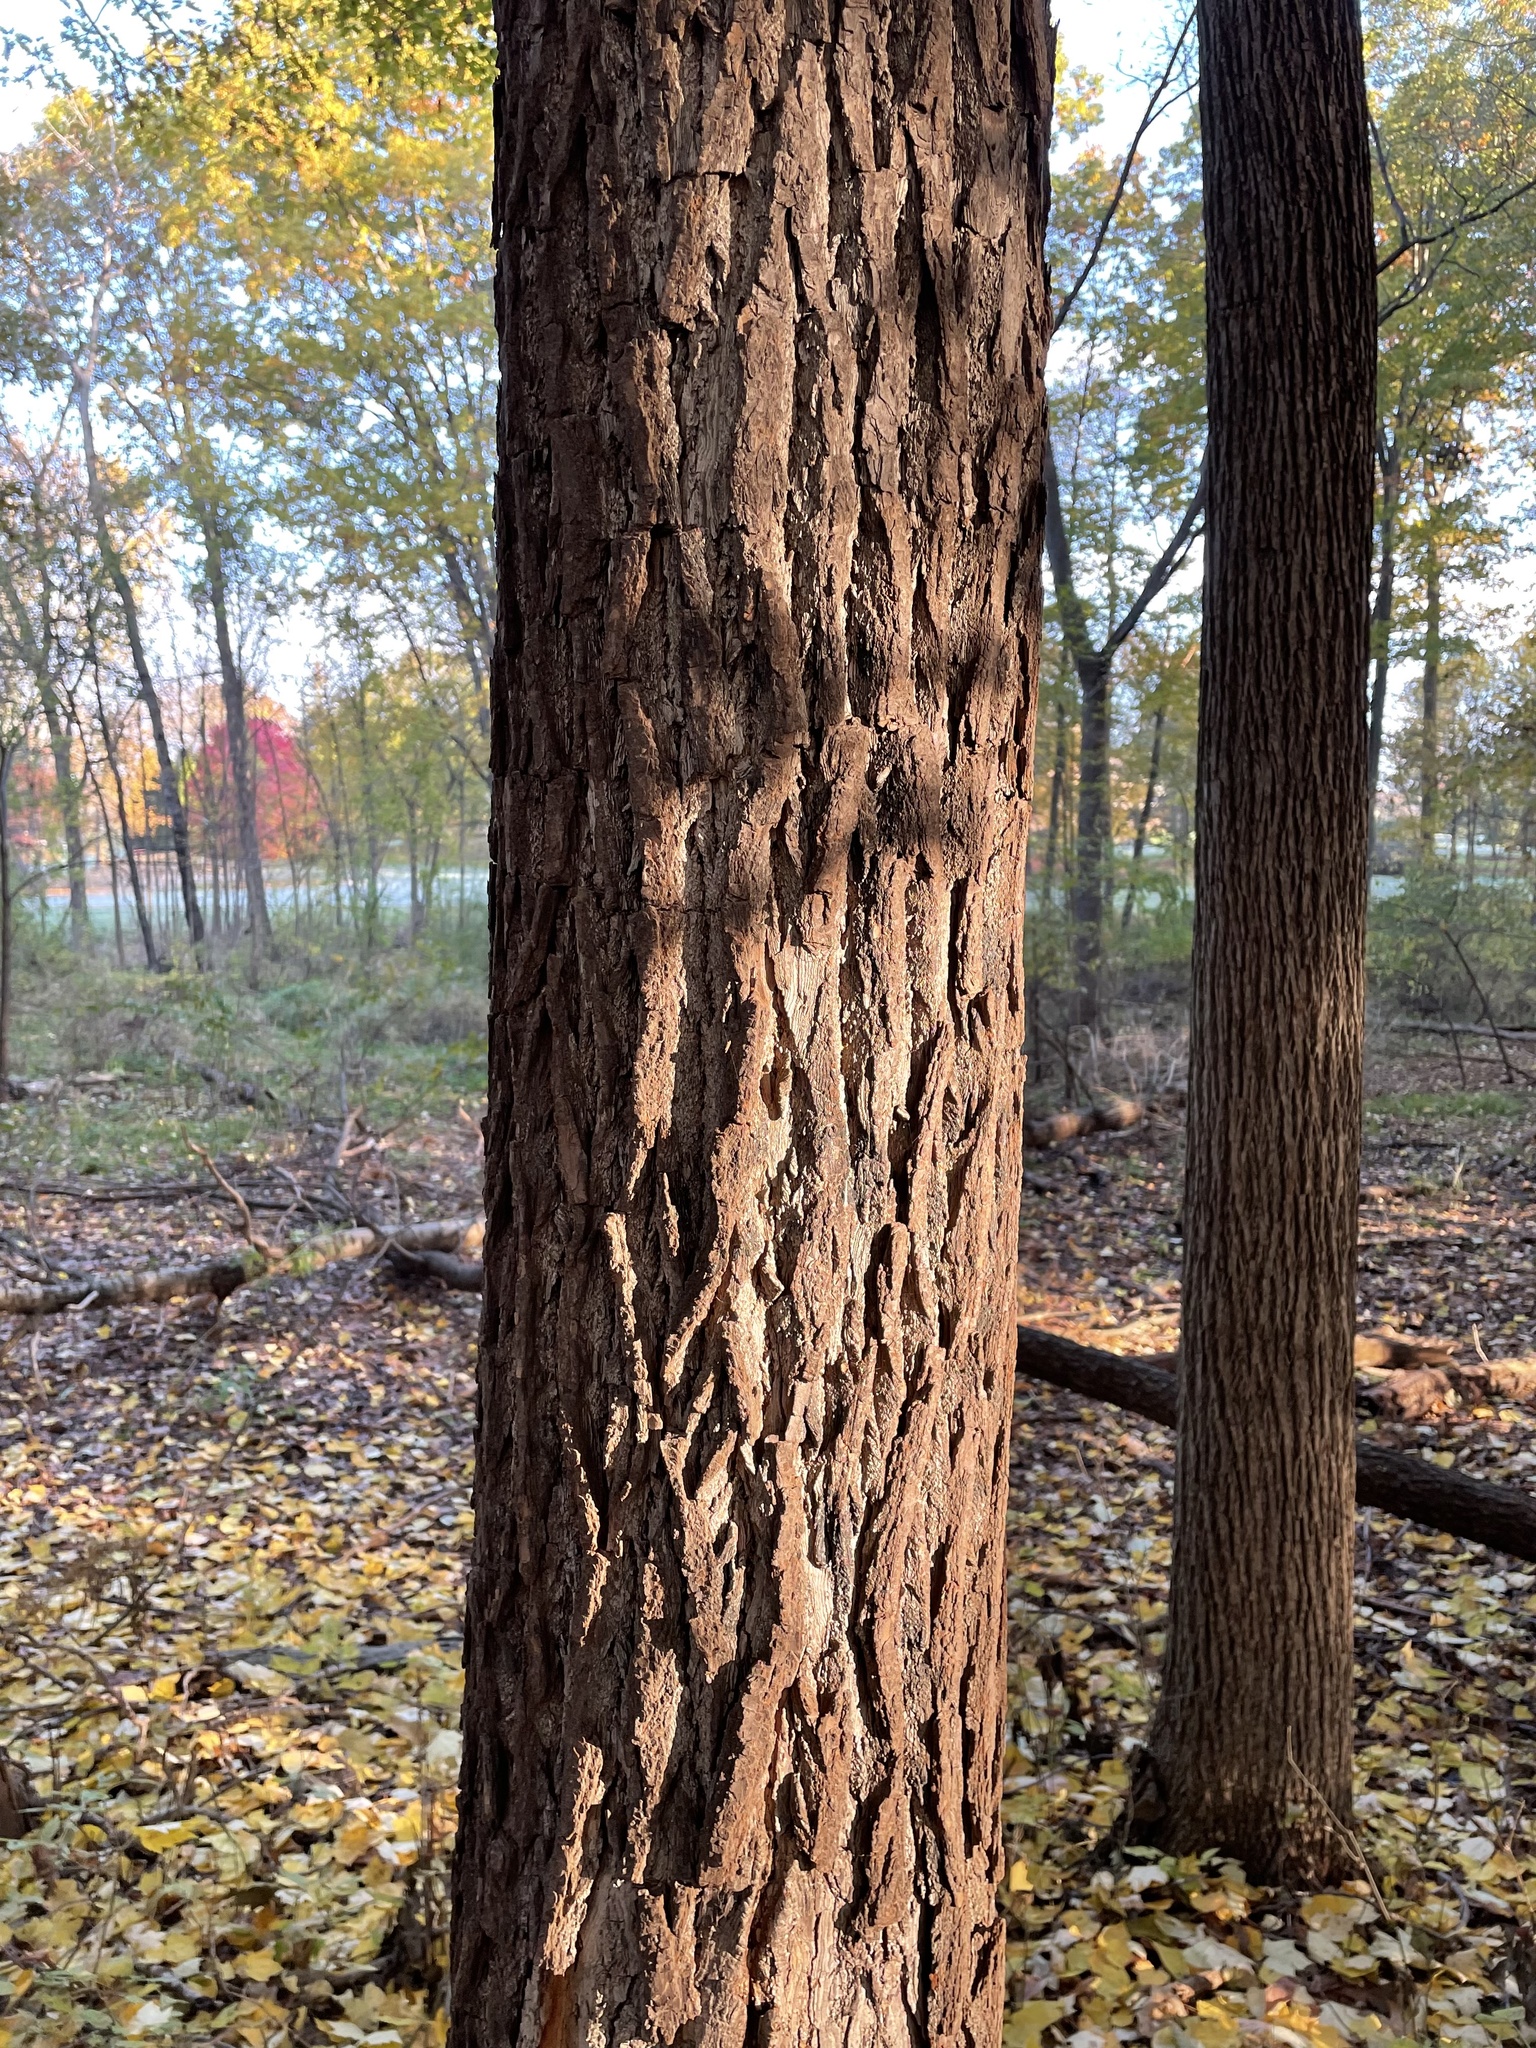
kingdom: Plantae
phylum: Tracheophyta
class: Magnoliopsida
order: Laurales
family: Lauraceae
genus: Sassafras
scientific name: Sassafras albidum
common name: Sassafras
